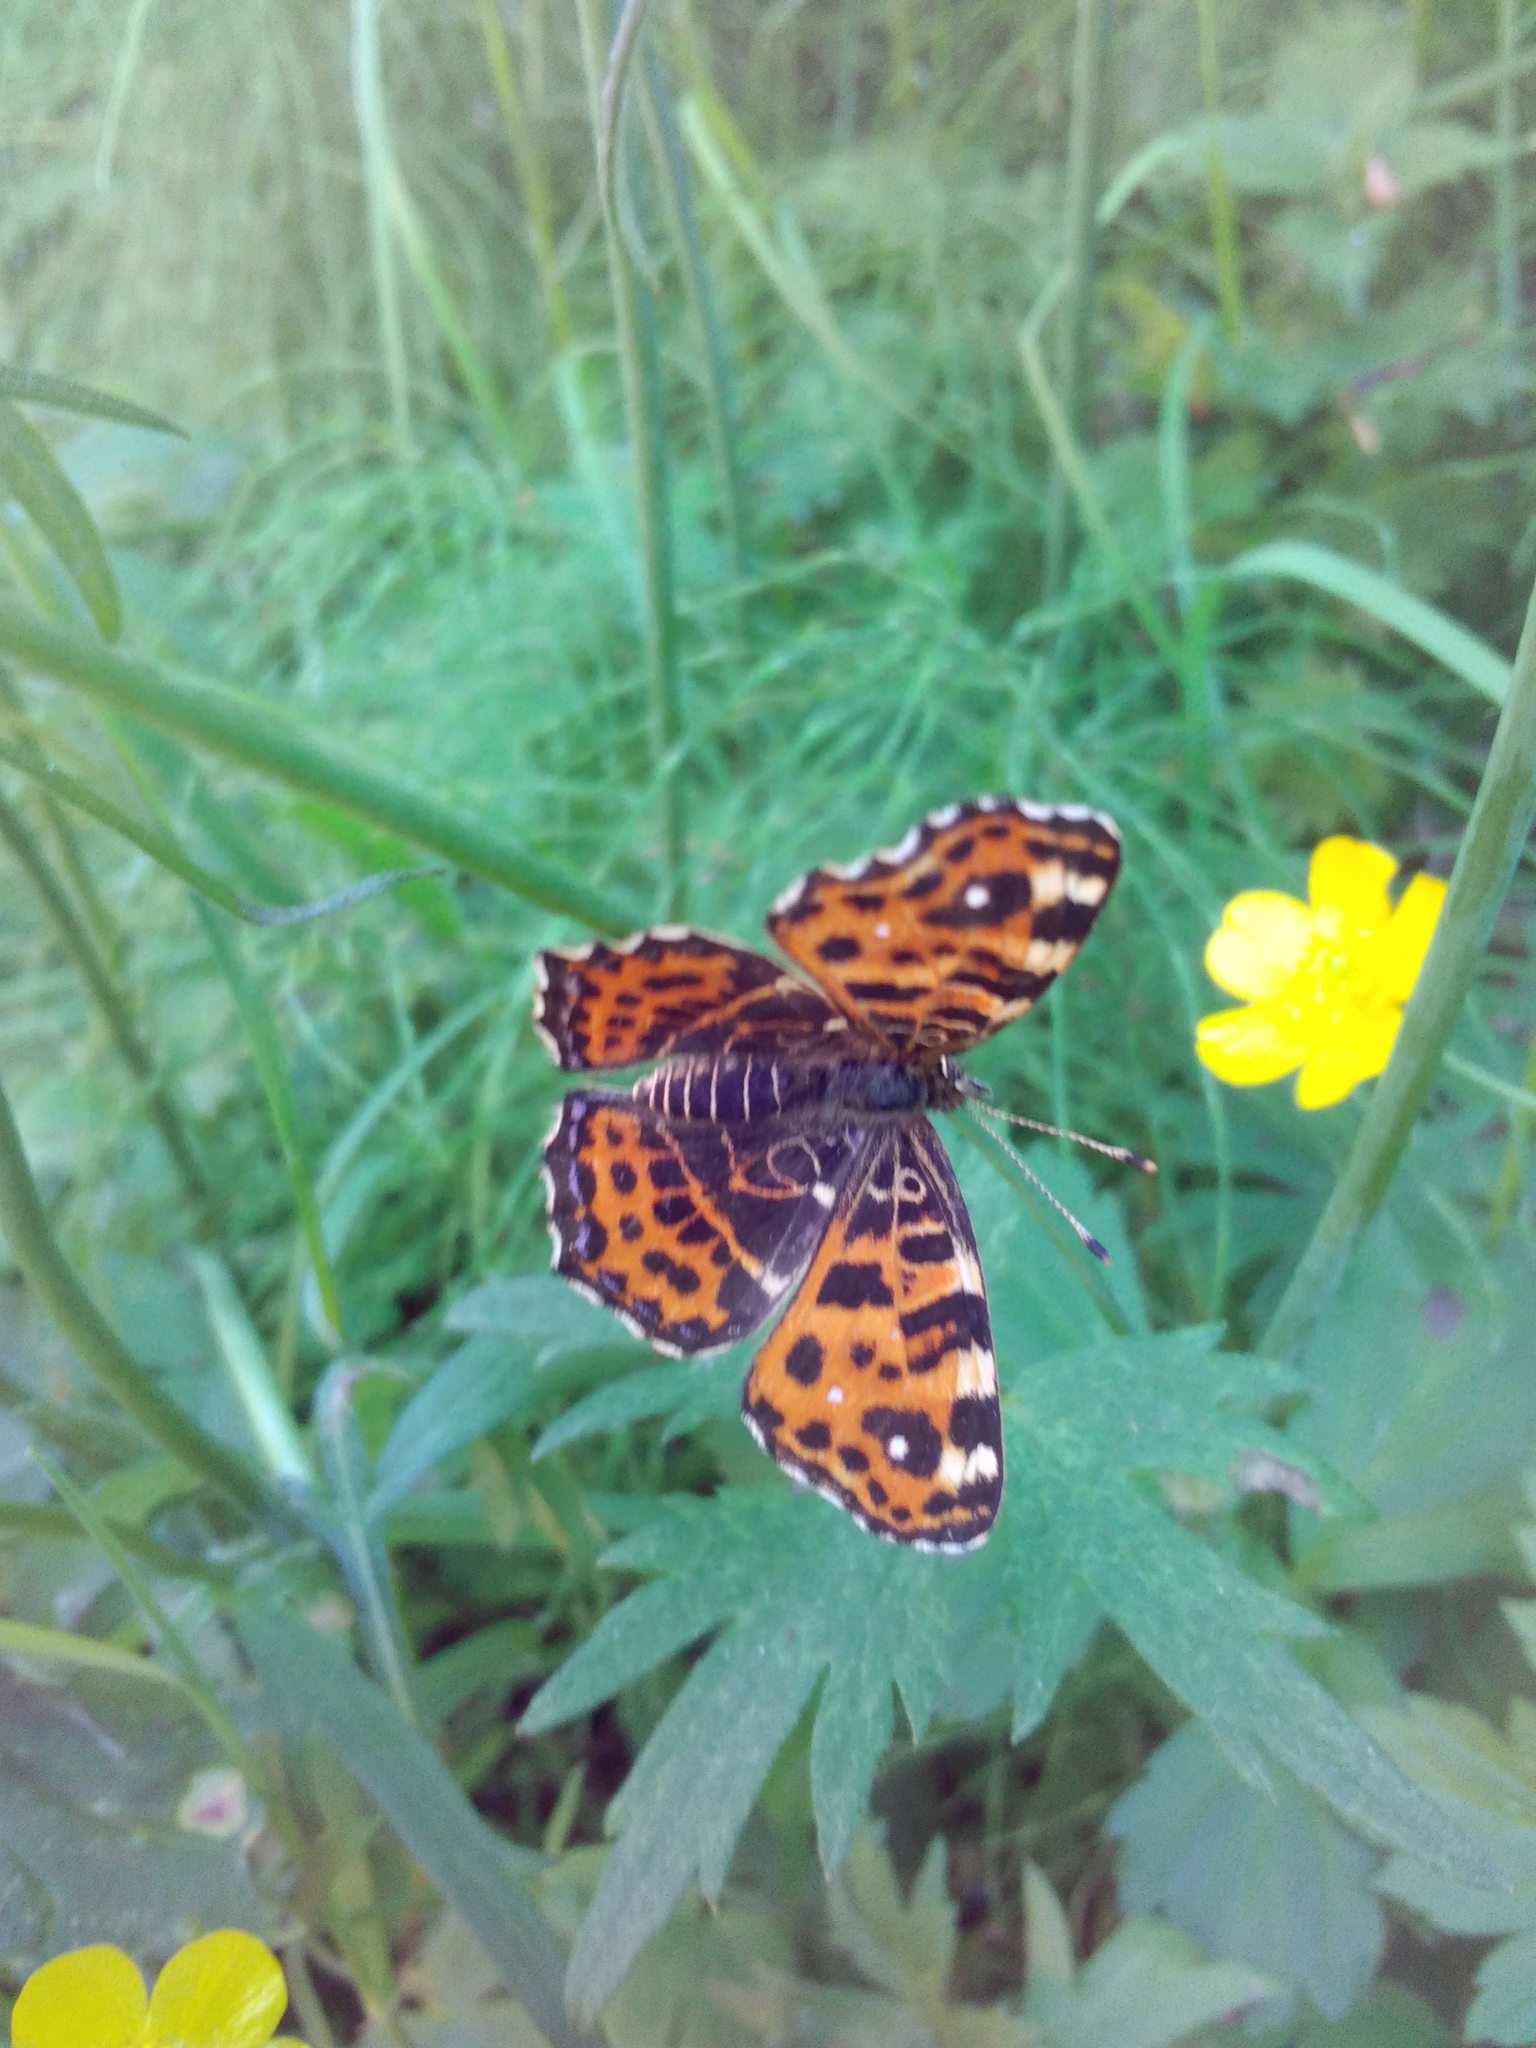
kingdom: Animalia
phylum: Arthropoda
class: Insecta
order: Lepidoptera
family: Nymphalidae
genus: Araschnia
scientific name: Araschnia levana
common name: Map butterfly
